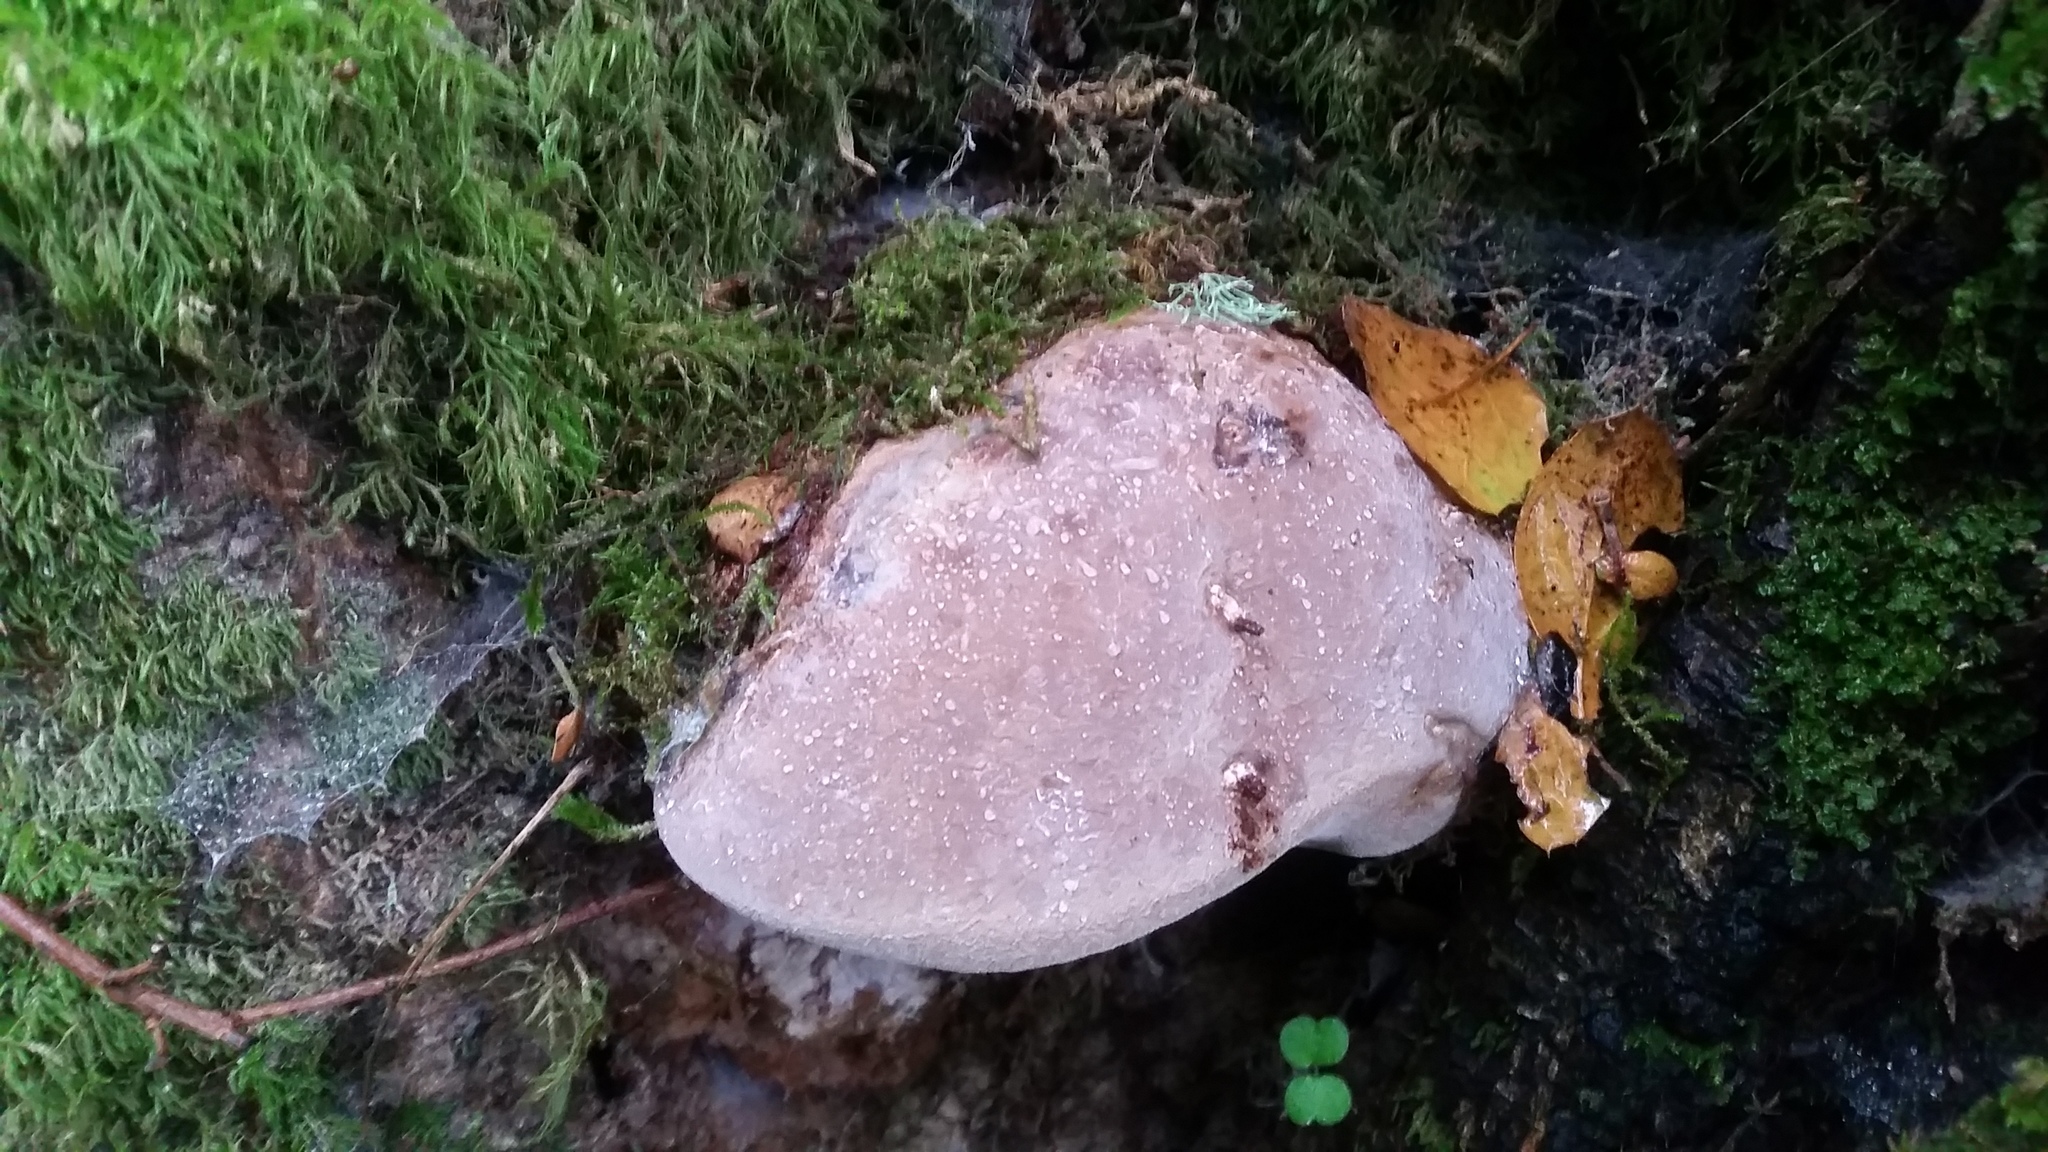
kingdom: Fungi
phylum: Basidiomycota
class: Agaricomycetes
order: Polyporales
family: Fomitopsidaceae
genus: Rhodofomes
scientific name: Rhodofomes cajanderi
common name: Rosy conk
